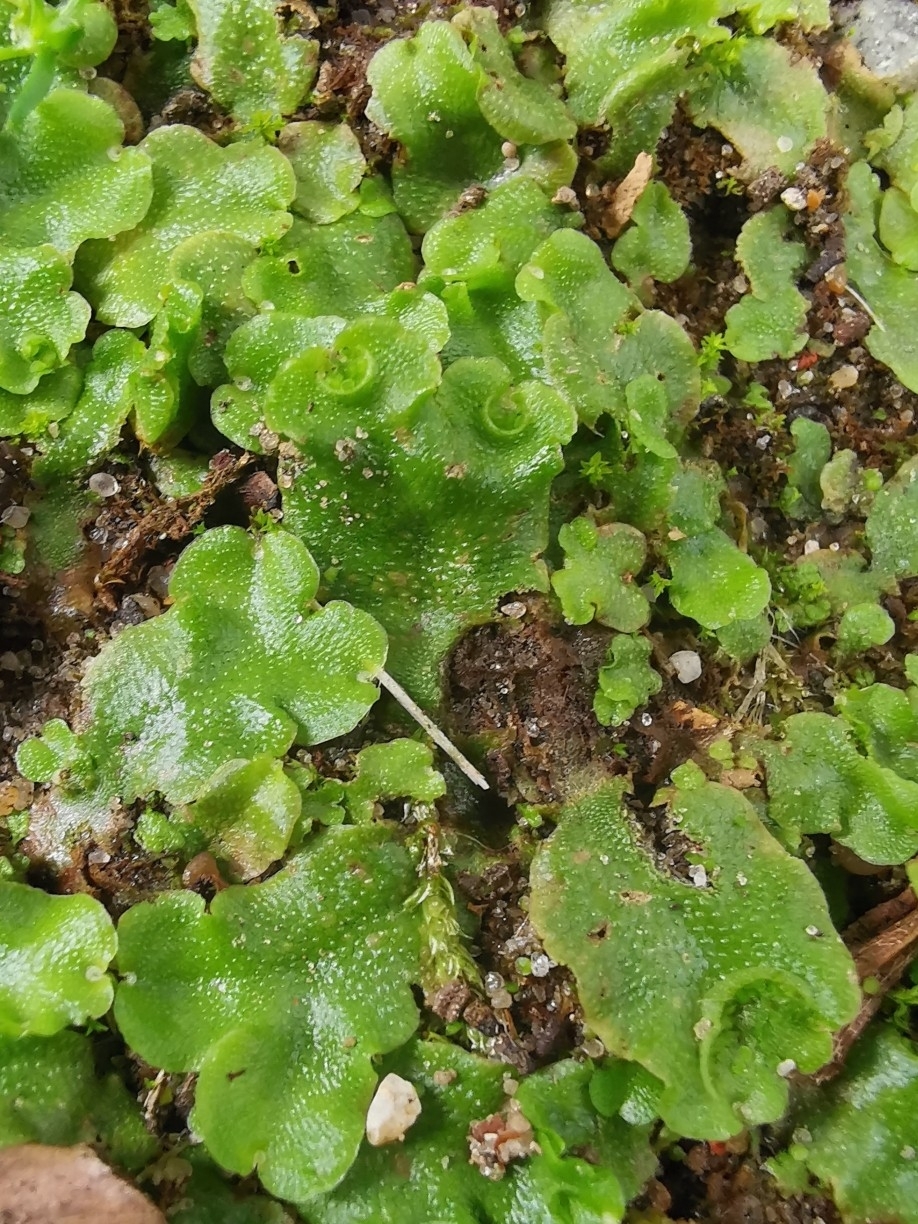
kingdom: Plantae
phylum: Marchantiophyta
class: Marchantiopsida
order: Lunulariales
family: Lunulariaceae
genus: Lunularia
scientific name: Lunularia cruciata
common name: Crescent-cup liverwort
